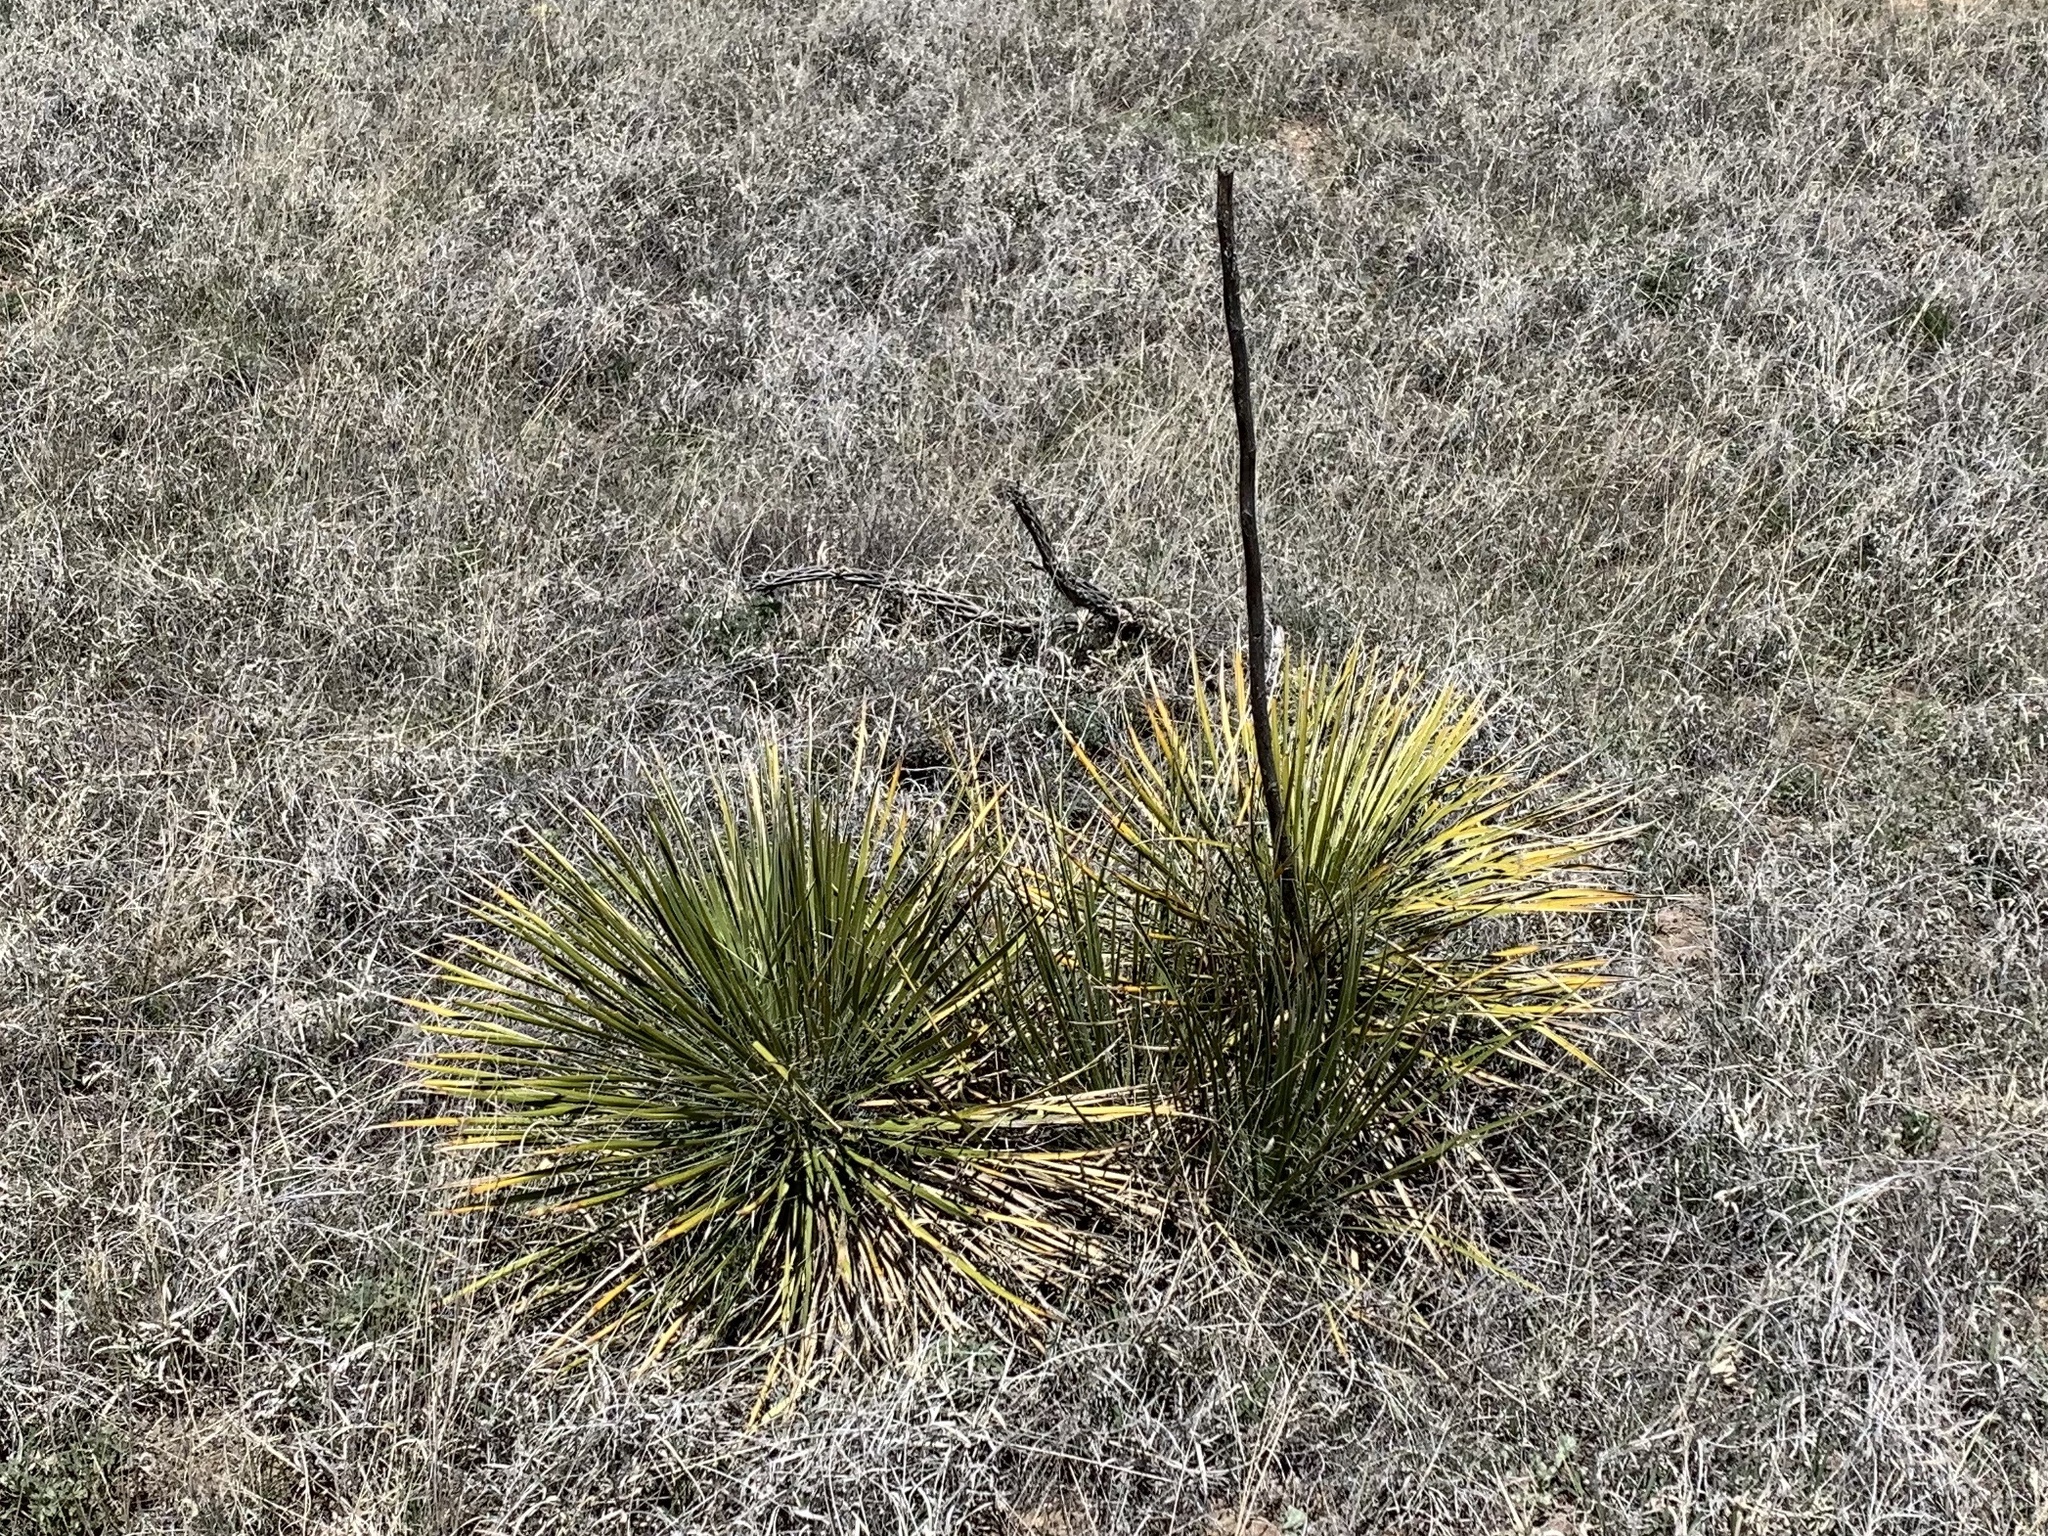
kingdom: Plantae
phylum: Tracheophyta
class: Liliopsida
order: Asparagales
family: Asparagaceae
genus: Yucca
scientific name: Yucca elata
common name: Palmella
